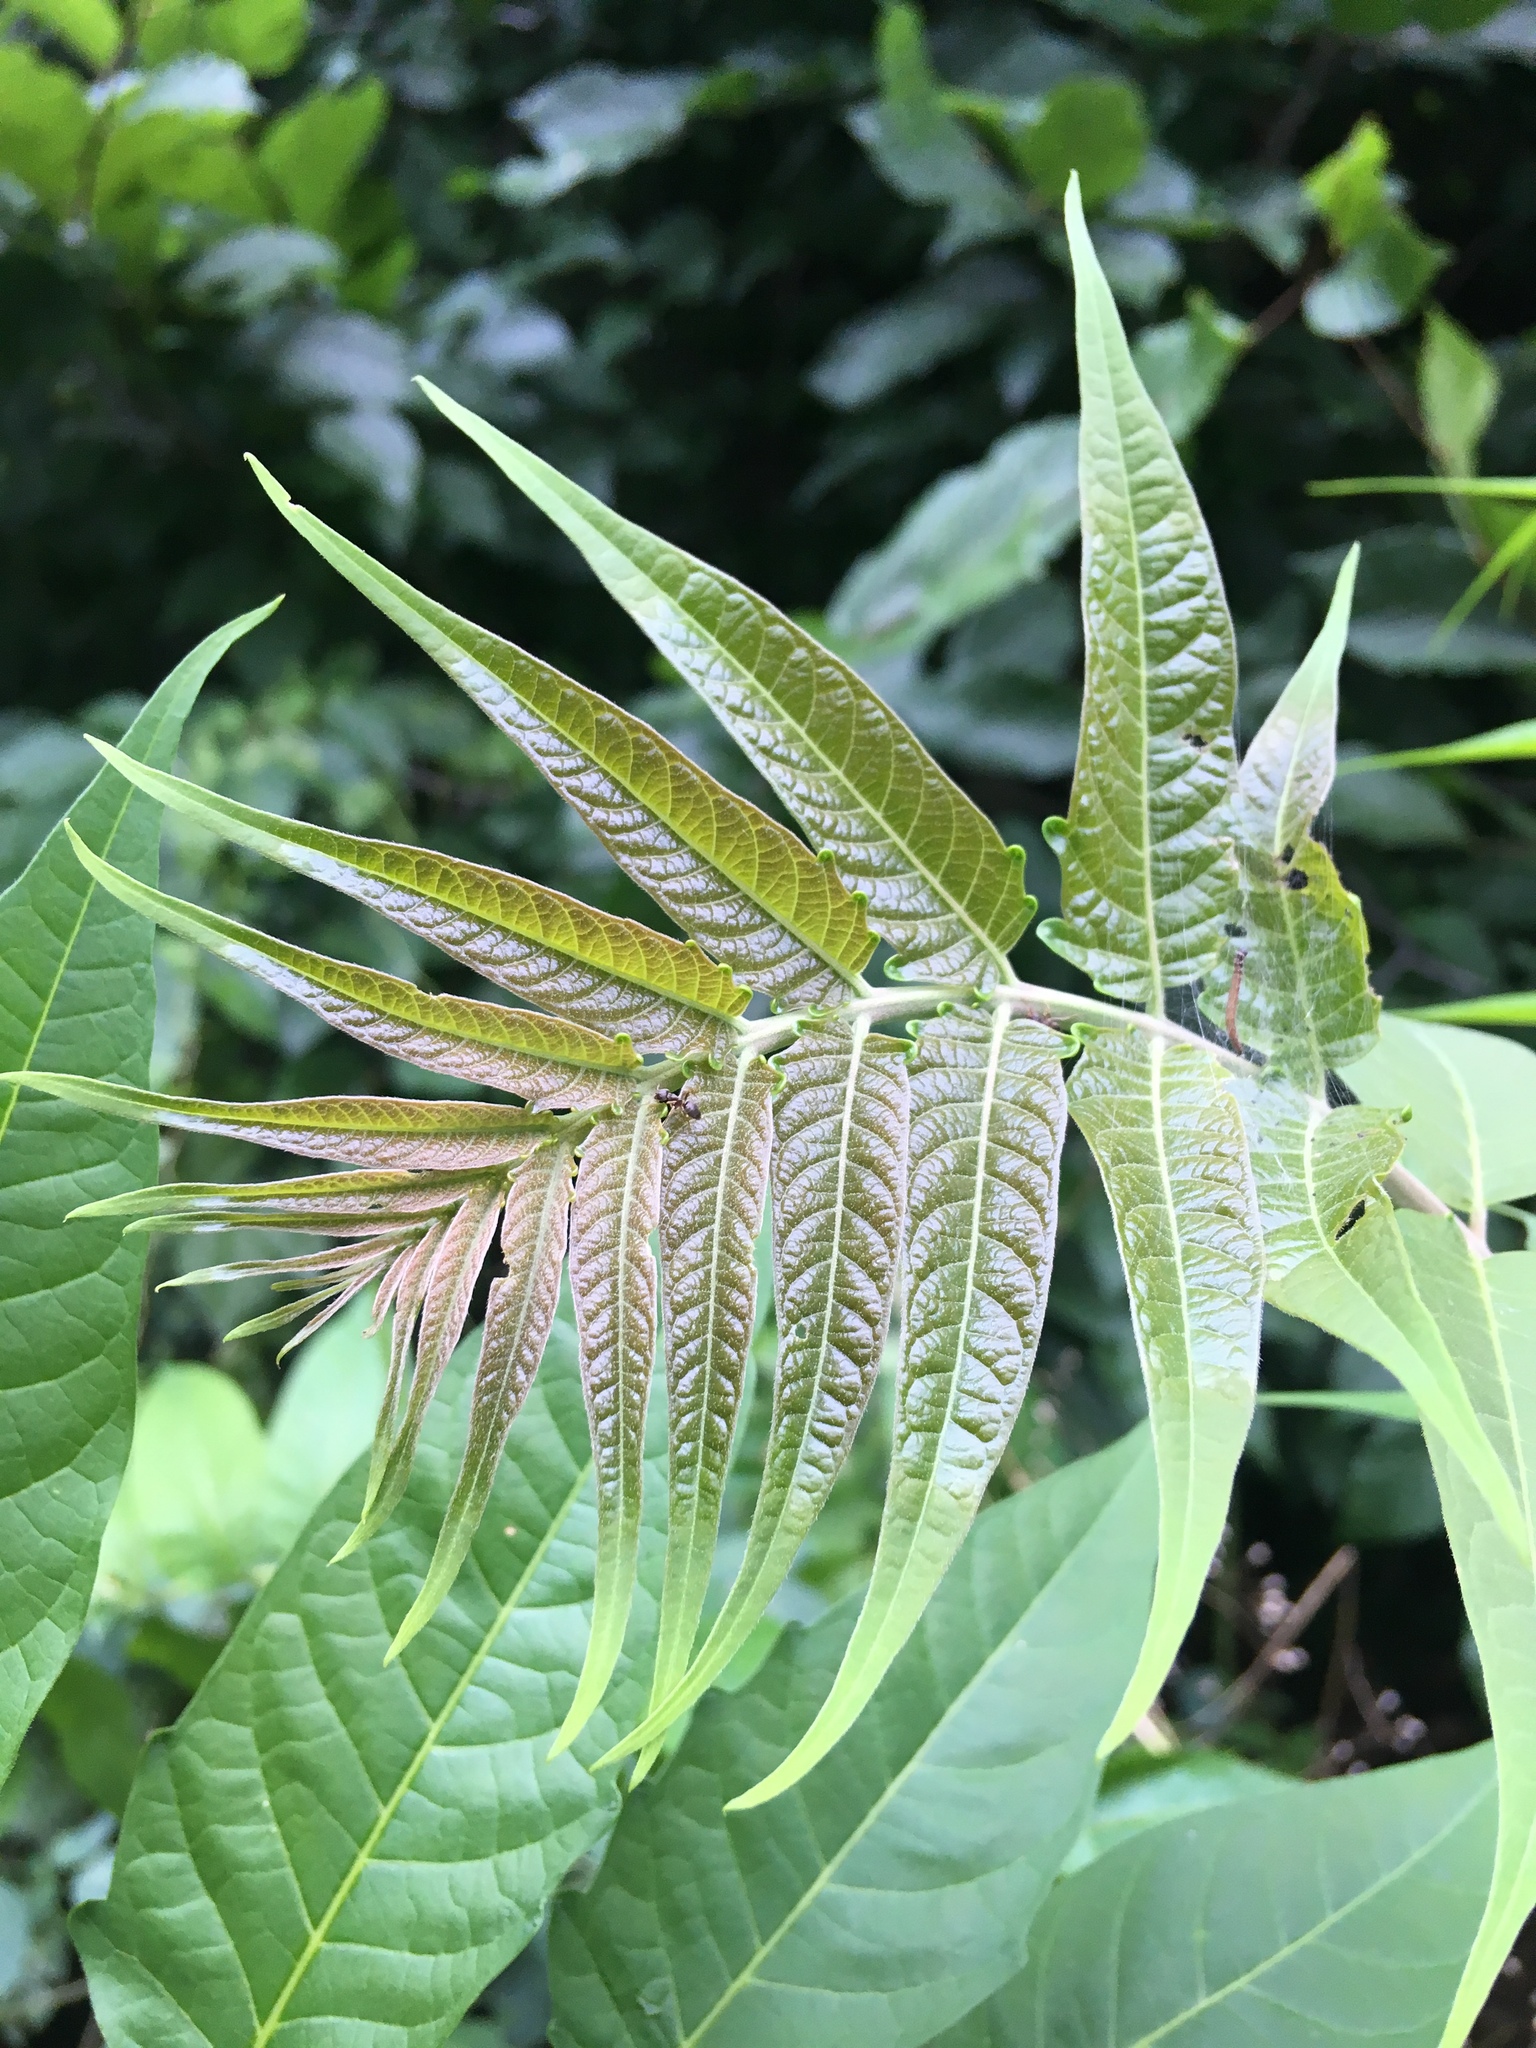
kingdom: Plantae
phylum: Tracheophyta
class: Magnoliopsida
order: Sapindales
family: Simaroubaceae
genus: Ailanthus
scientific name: Ailanthus altissima
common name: Tree-of-heaven
